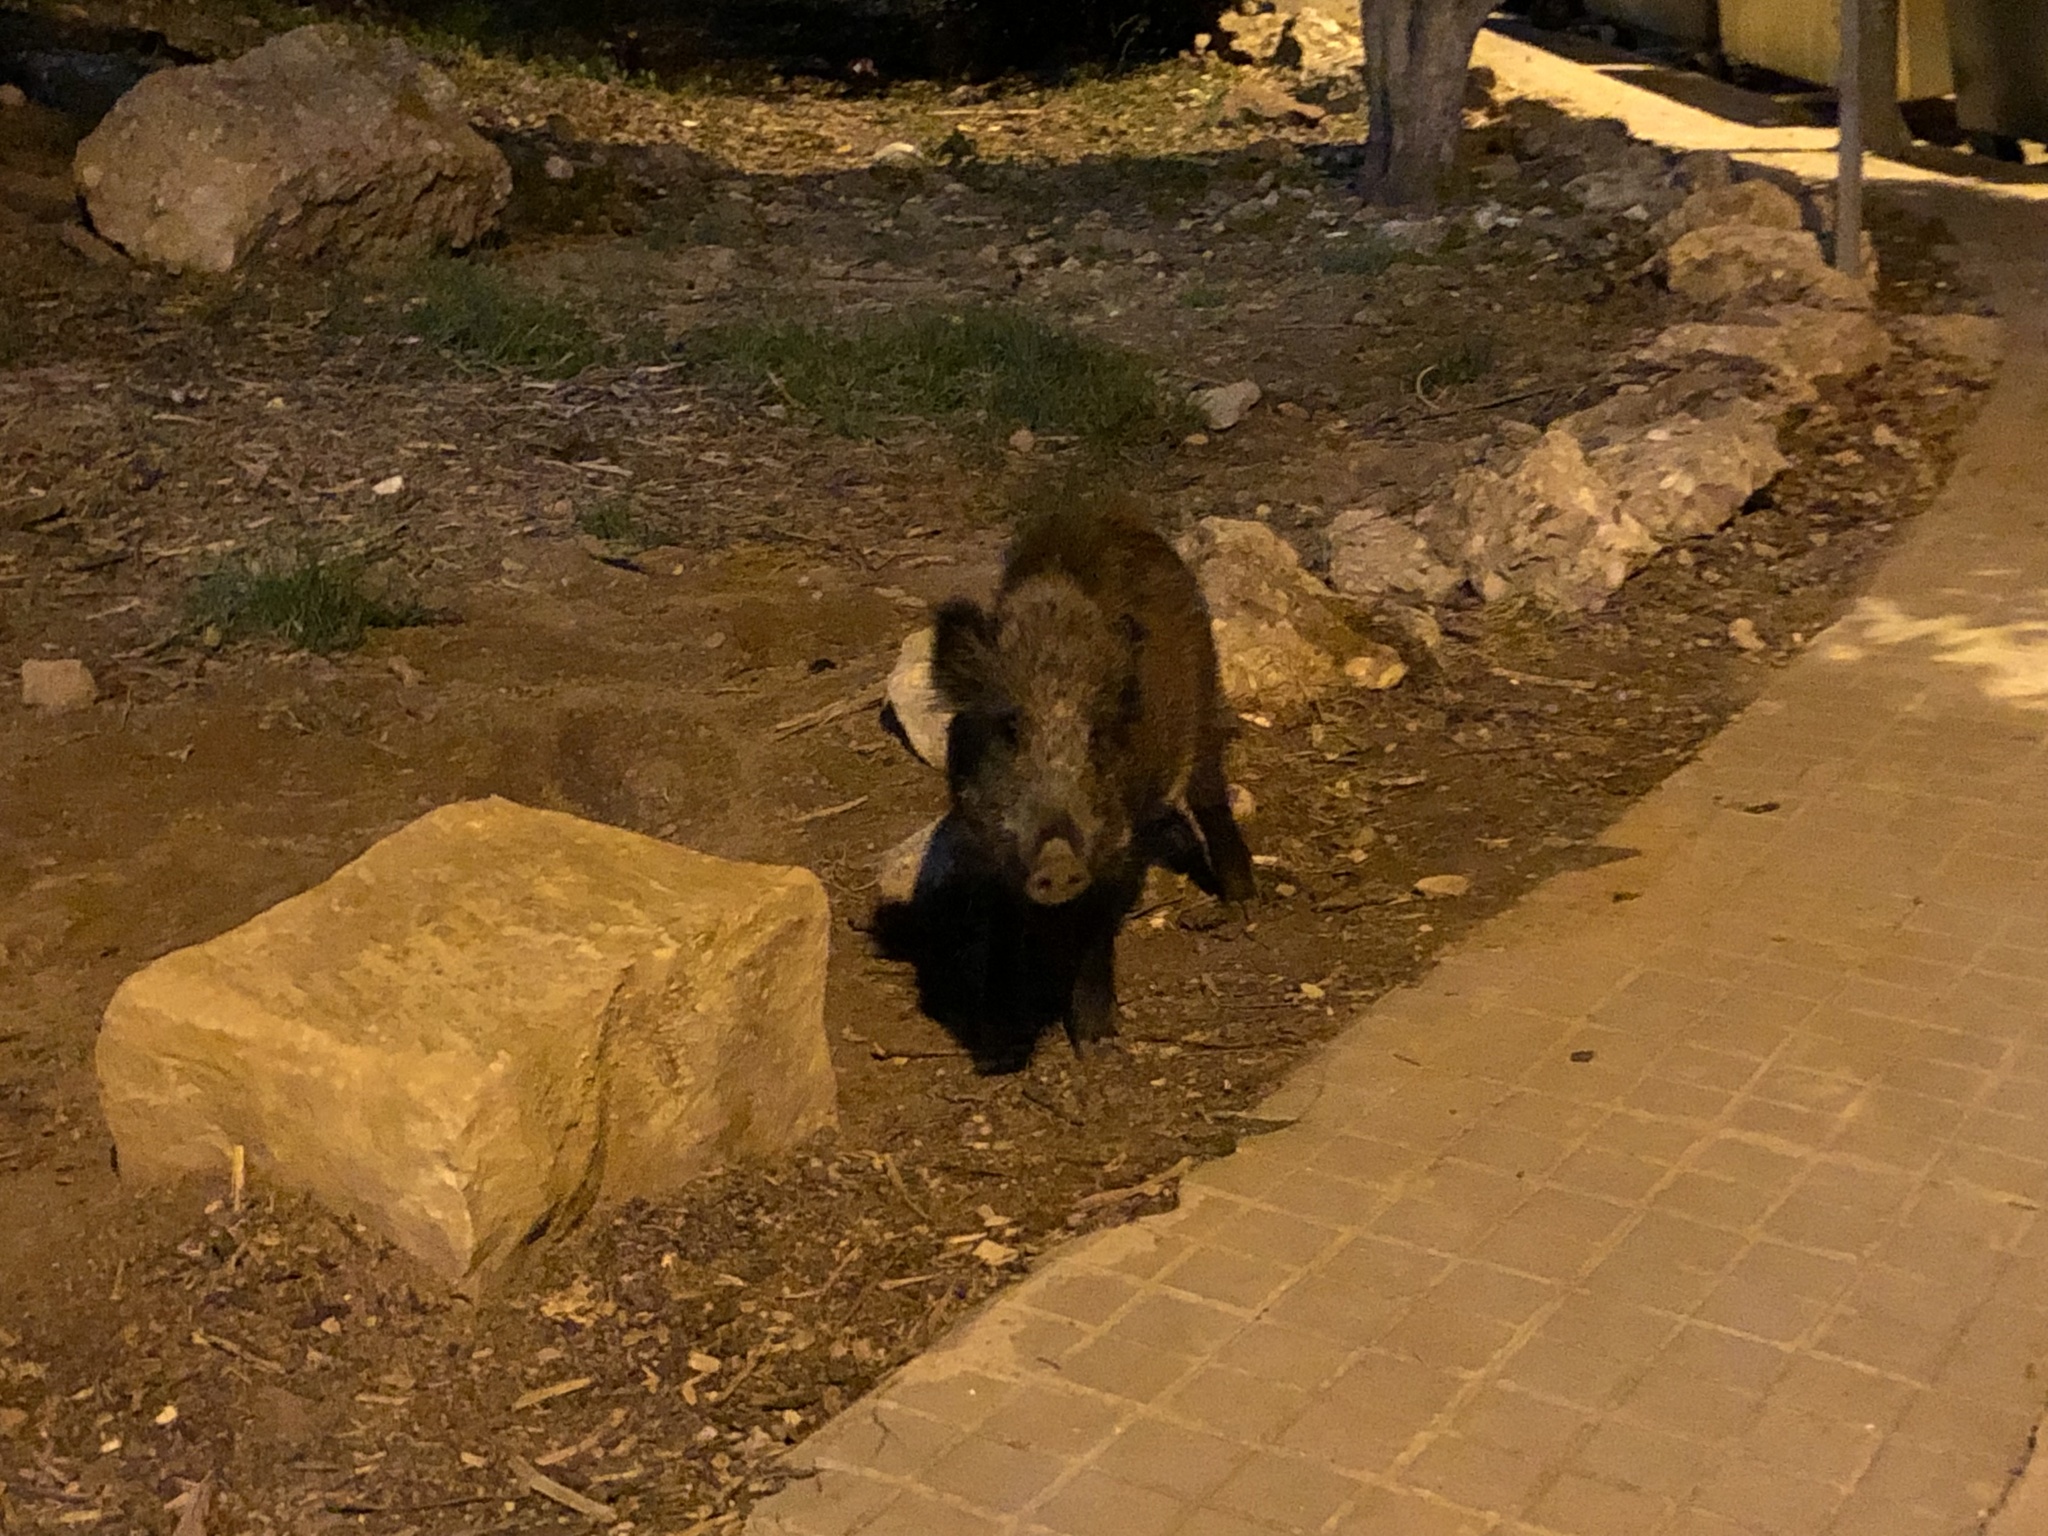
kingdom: Animalia
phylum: Chordata
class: Mammalia
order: Artiodactyla
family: Suidae
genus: Sus
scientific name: Sus scrofa
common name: Wild boar
